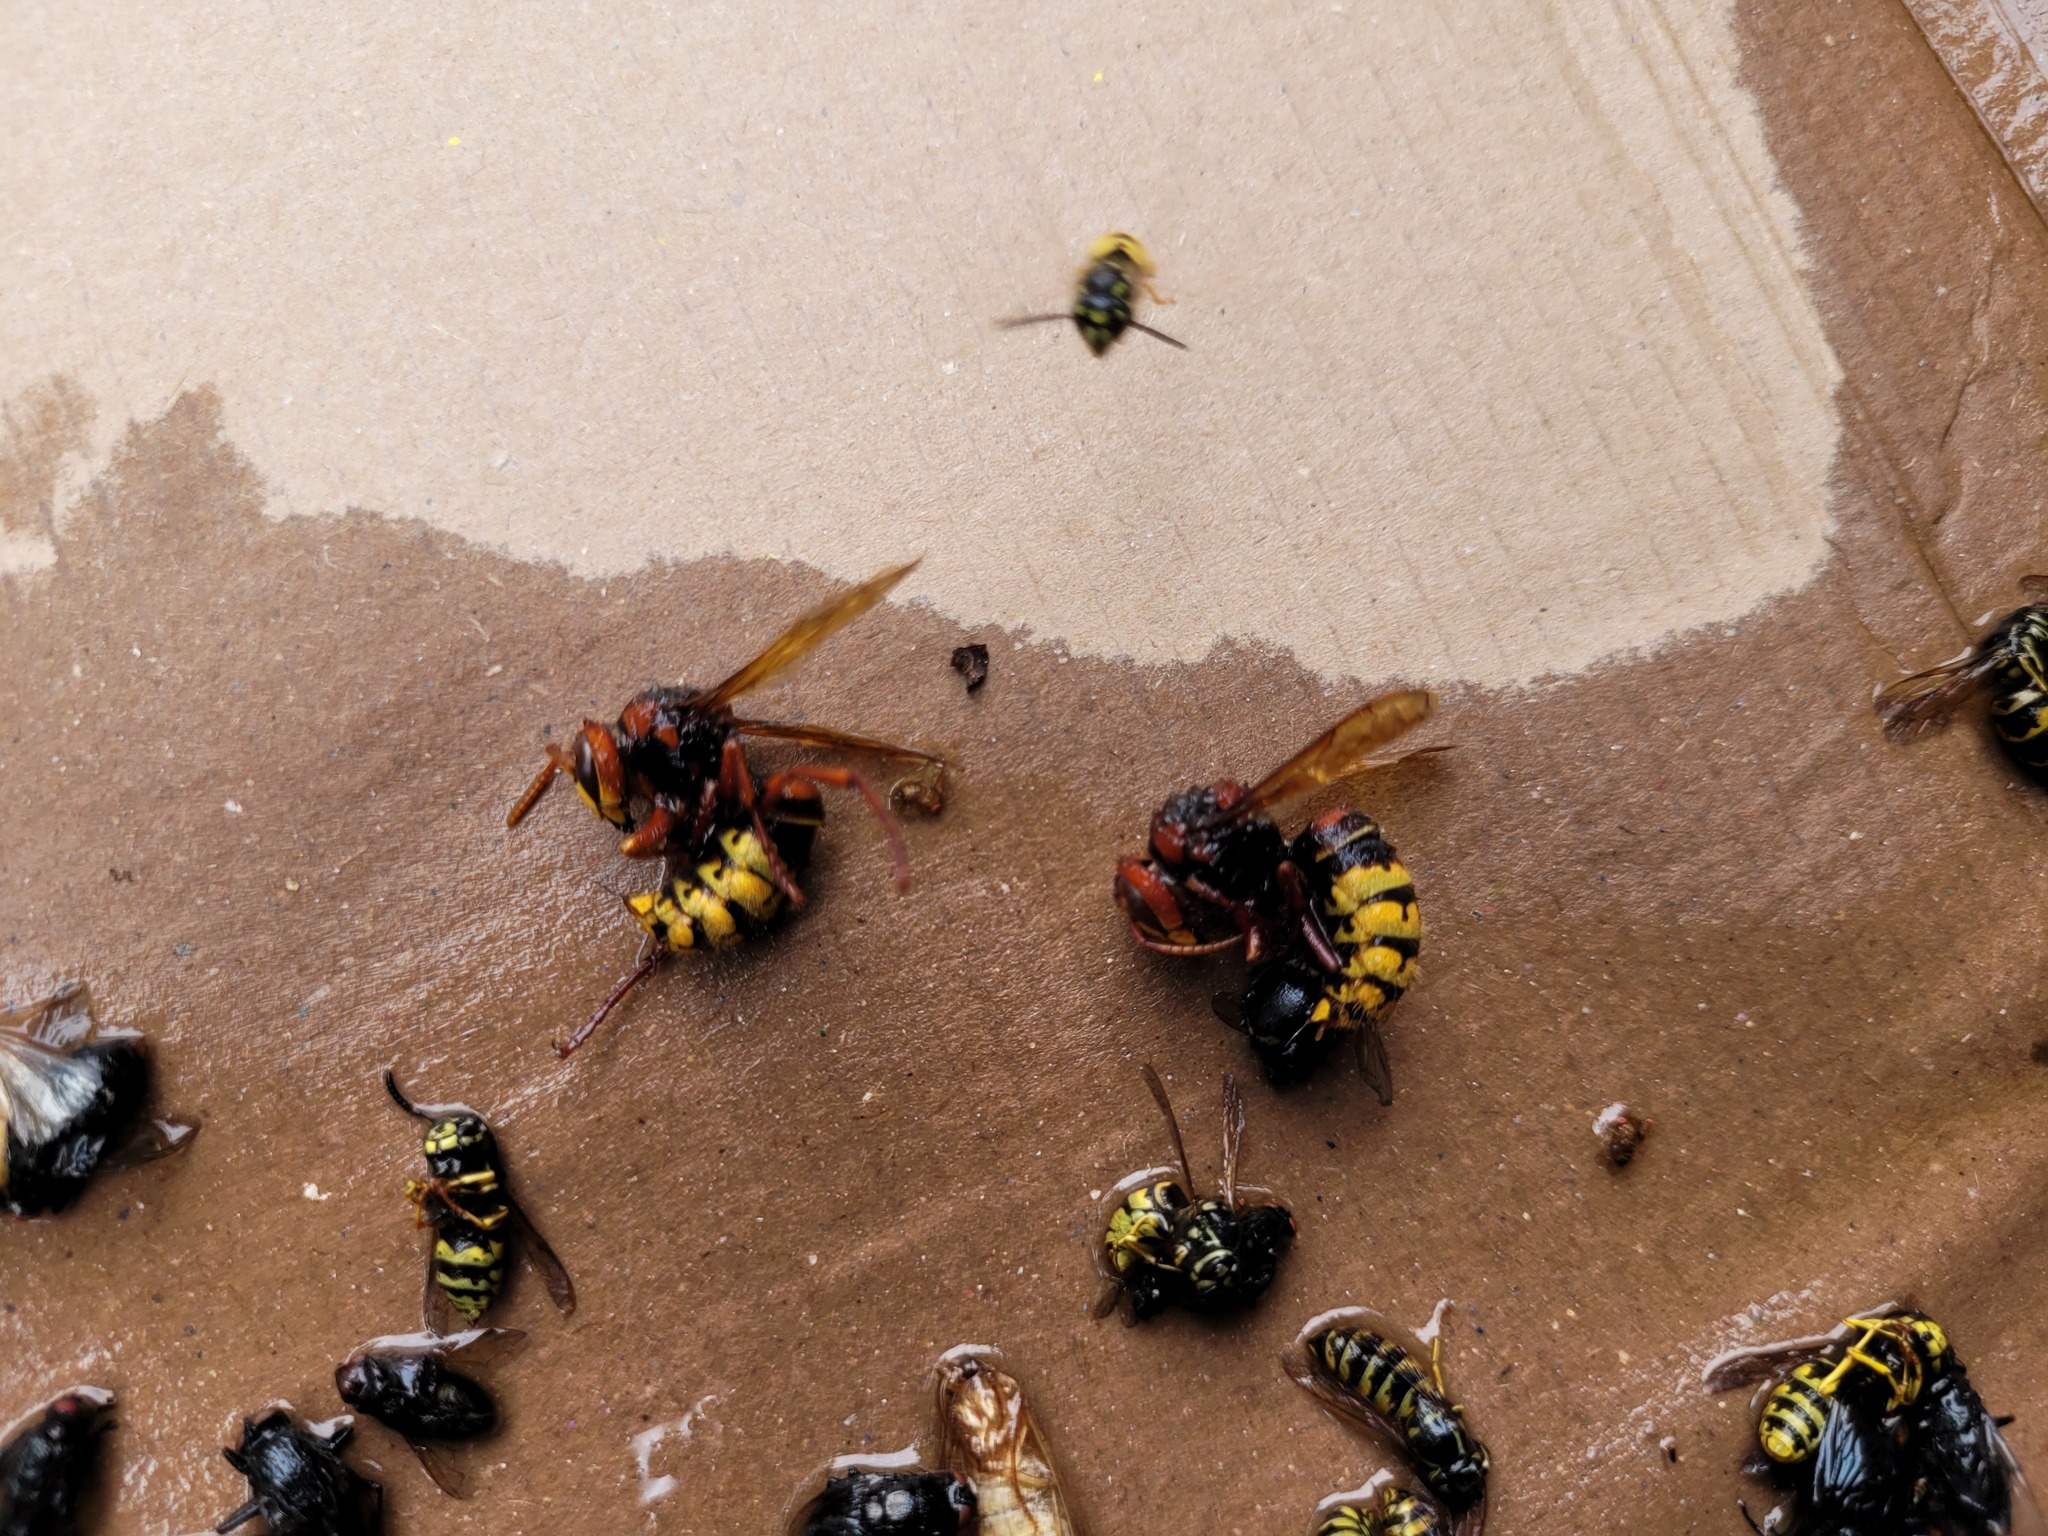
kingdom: Animalia
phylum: Arthropoda
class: Insecta
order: Hymenoptera
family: Vespidae
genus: Vespa
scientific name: Vespa crabro
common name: Hornet
